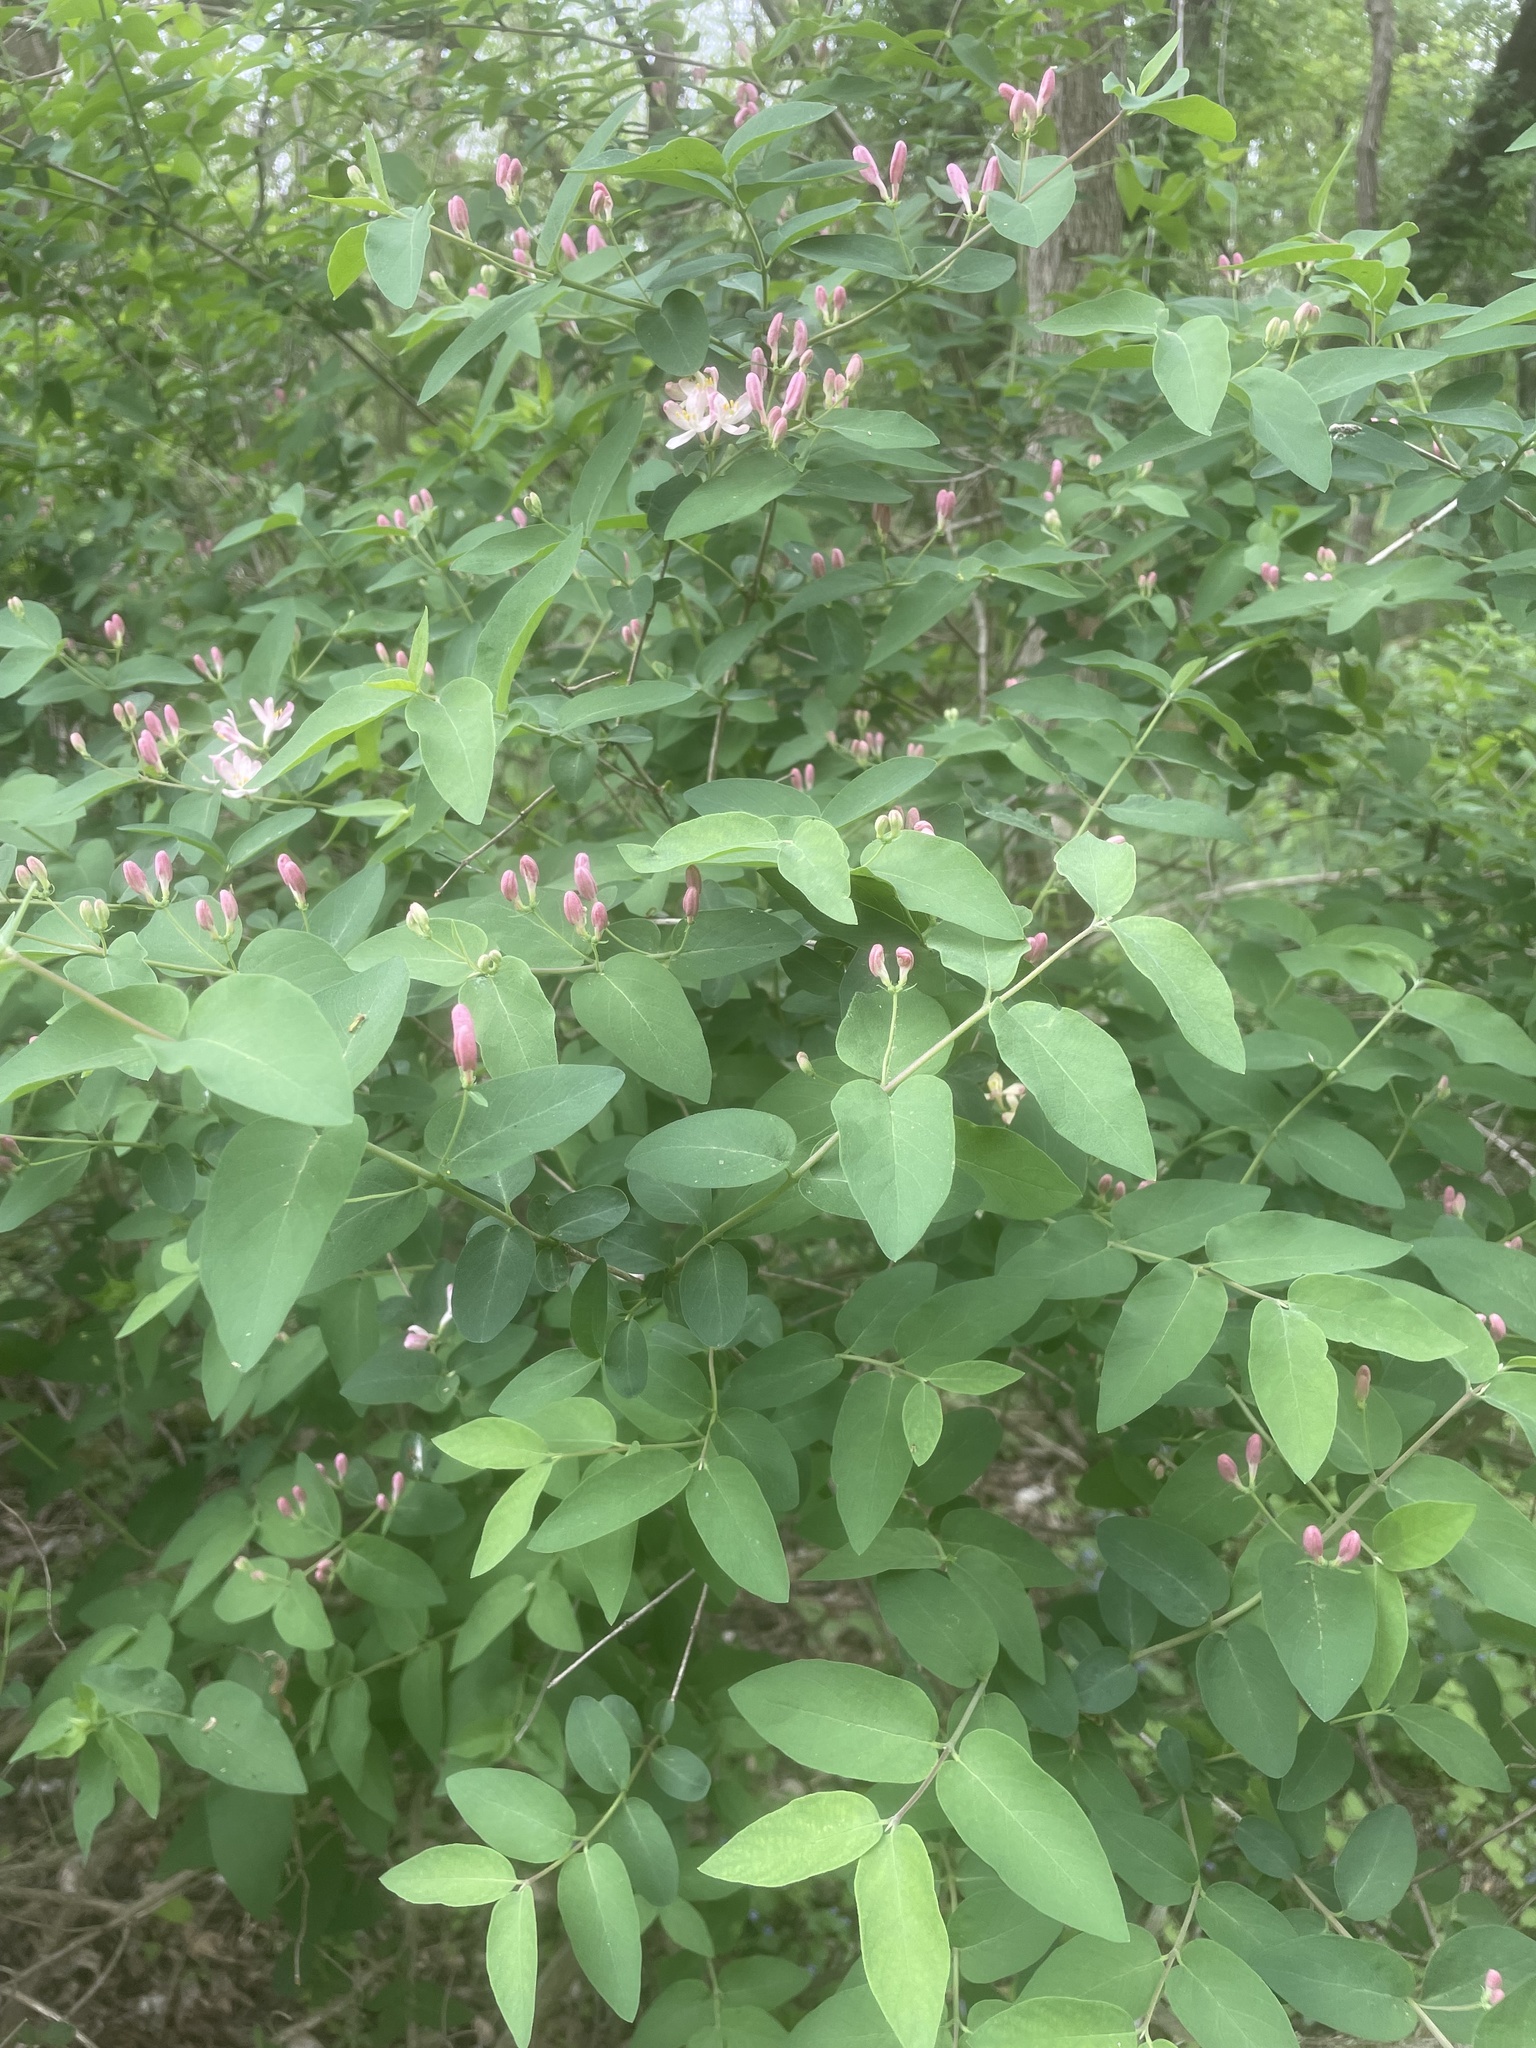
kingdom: Plantae
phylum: Tracheophyta
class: Magnoliopsida
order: Dipsacales
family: Caprifoliaceae
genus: Lonicera
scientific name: Lonicera tatarica
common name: Tatarian honeysuckle
